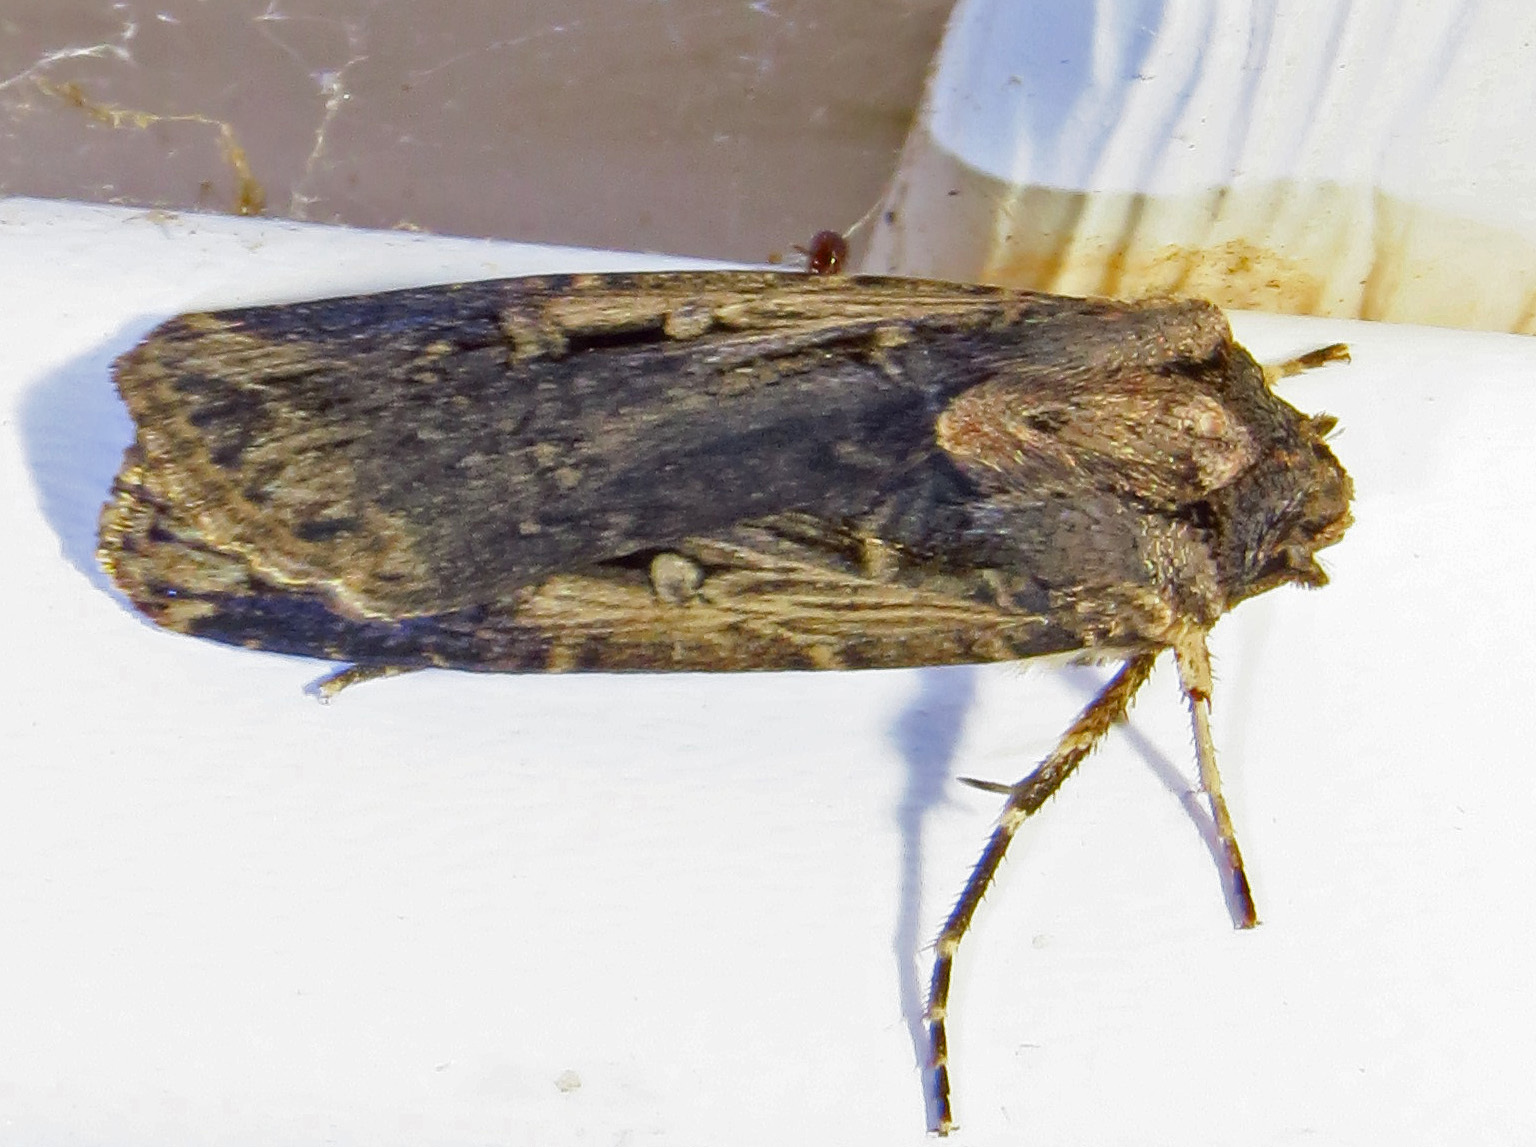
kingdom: Animalia
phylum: Arthropoda
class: Insecta
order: Lepidoptera
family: Noctuidae
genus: Feltia
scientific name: Feltia subterranea
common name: Granulate cutworm
